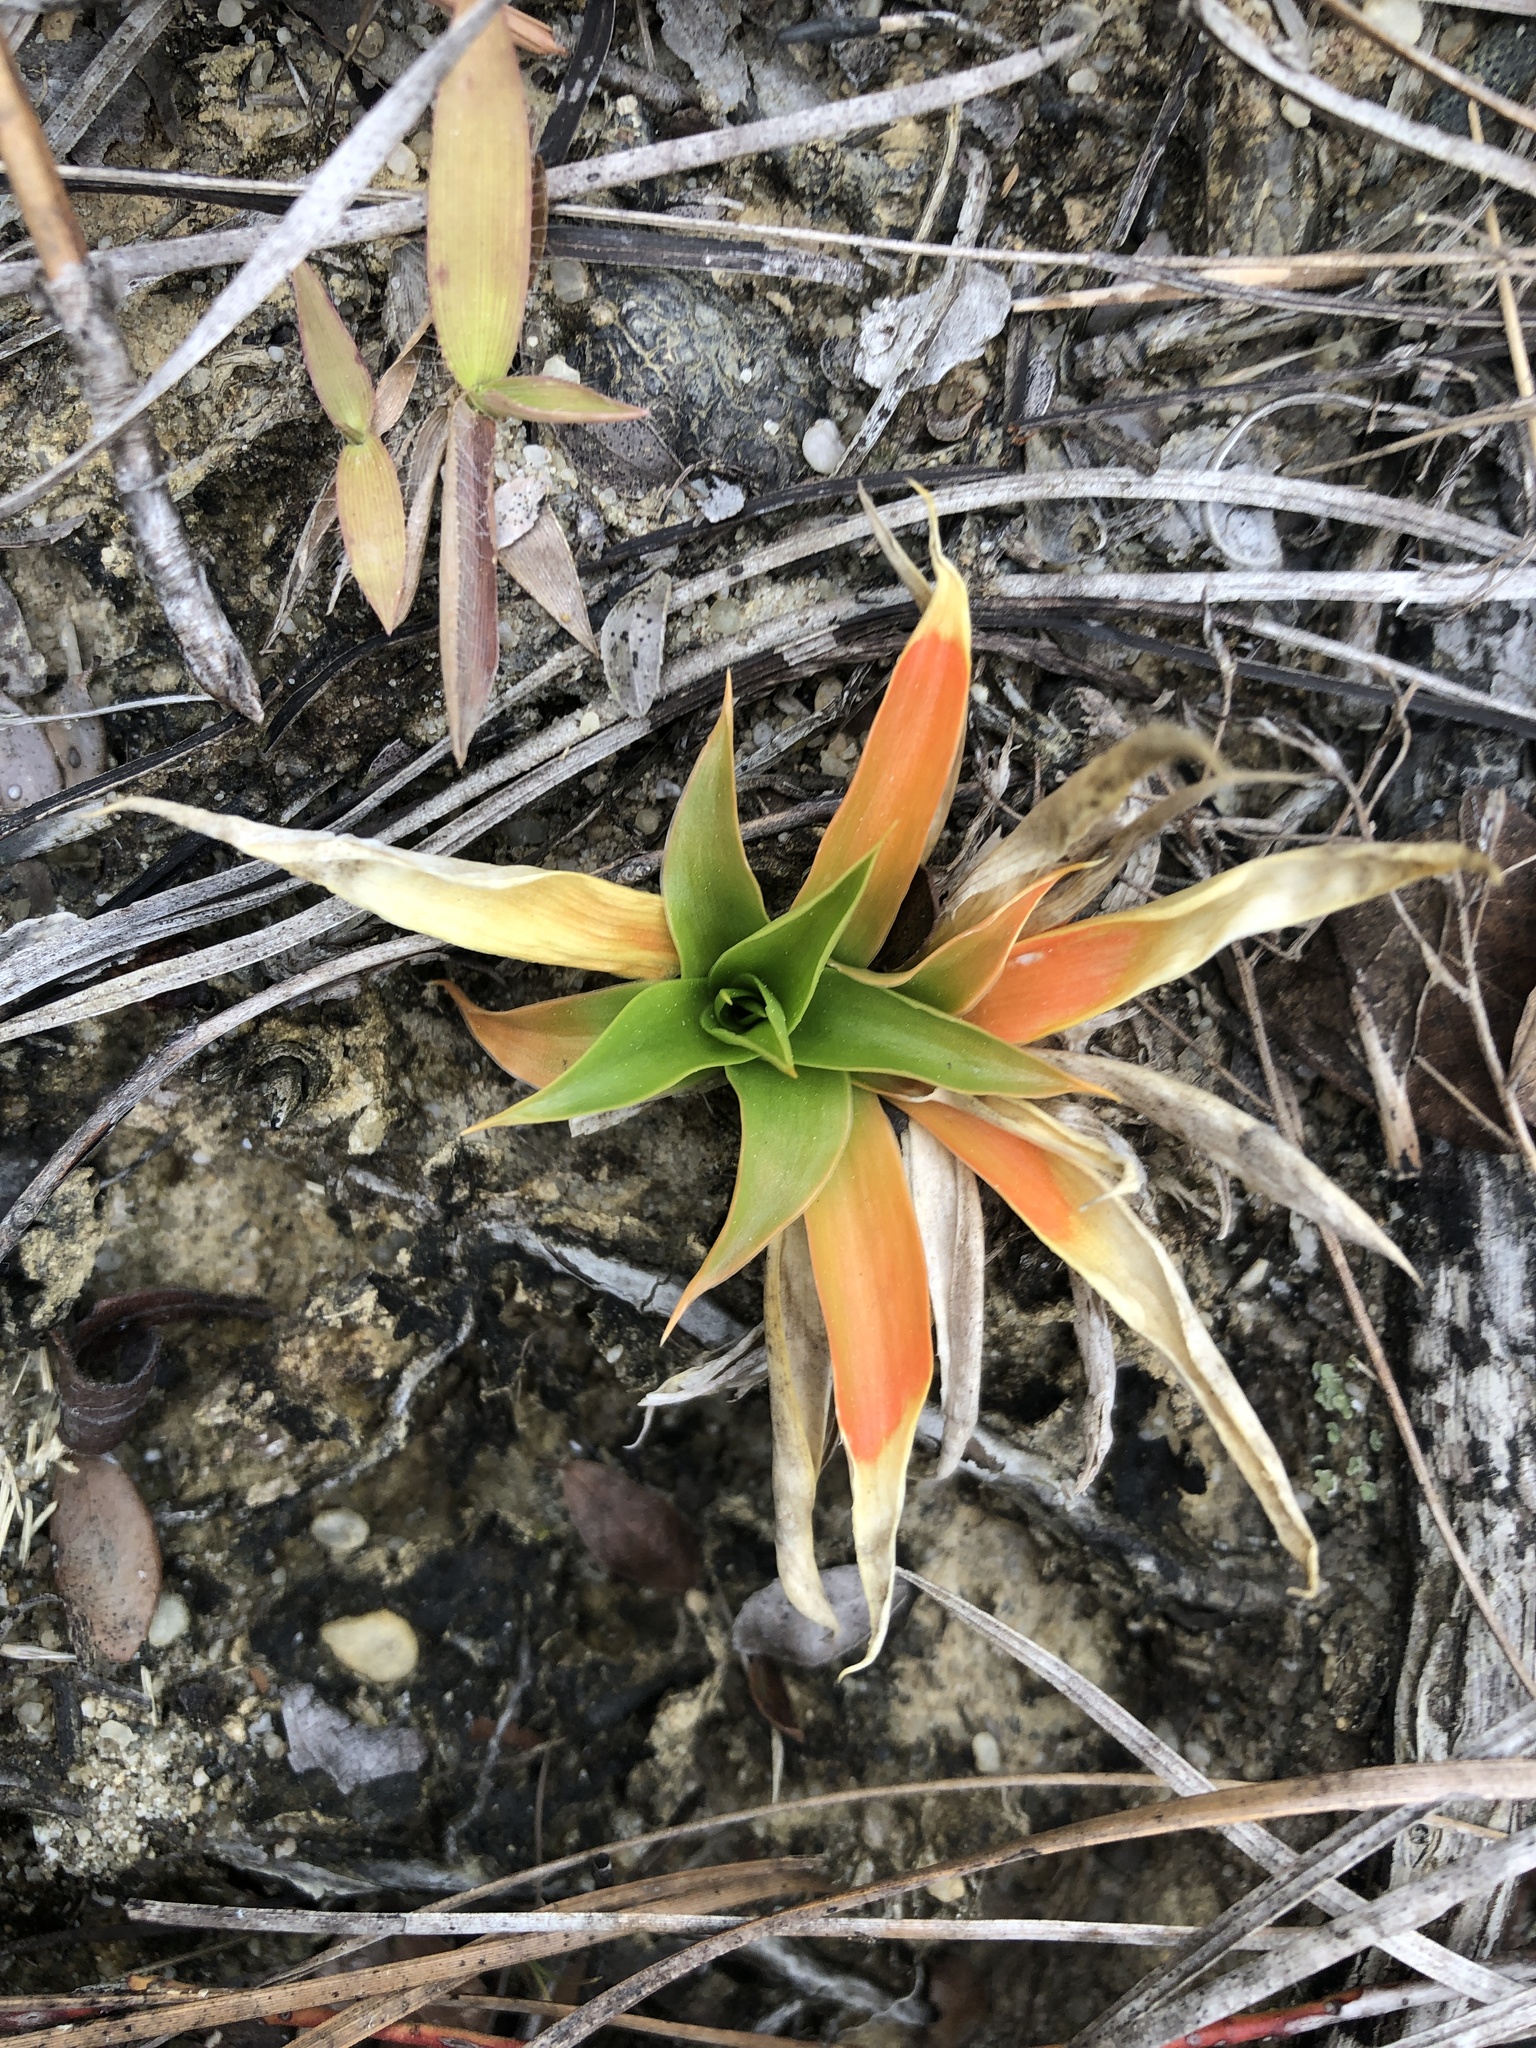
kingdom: Plantae
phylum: Tracheophyta
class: Liliopsida
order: Dioscoreales
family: Nartheciaceae
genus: Aletris
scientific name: Aletris farinosa
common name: Colicroot
